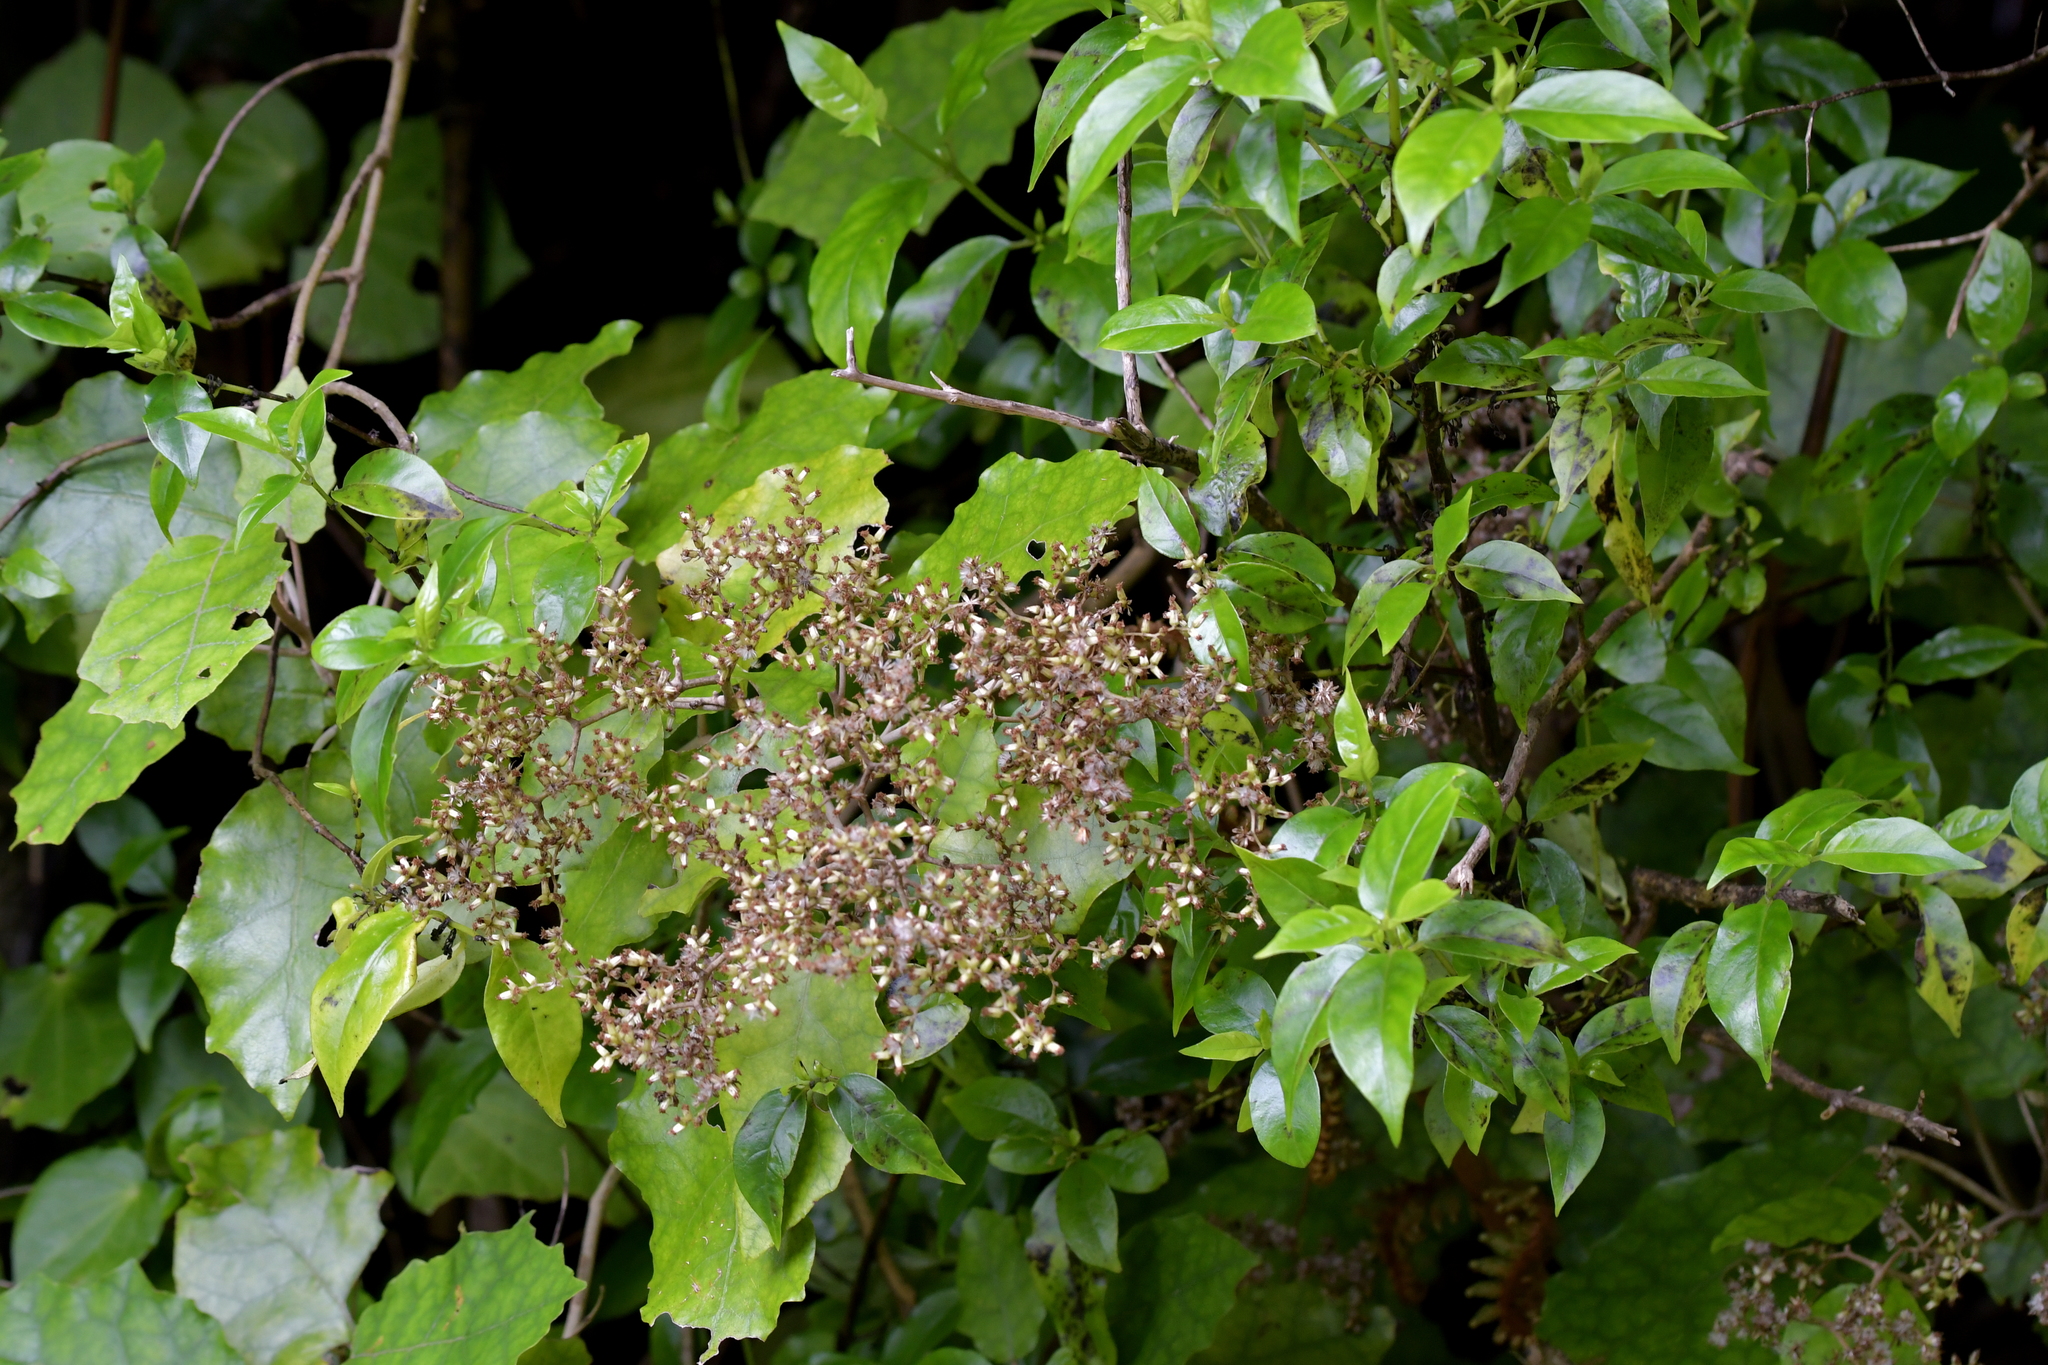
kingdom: Plantae
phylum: Tracheophyta
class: Magnoliopsida
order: Asterales
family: Asteraceae
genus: Brachyglottis
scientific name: Brachyglottis repanda
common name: Hedge ragwort
